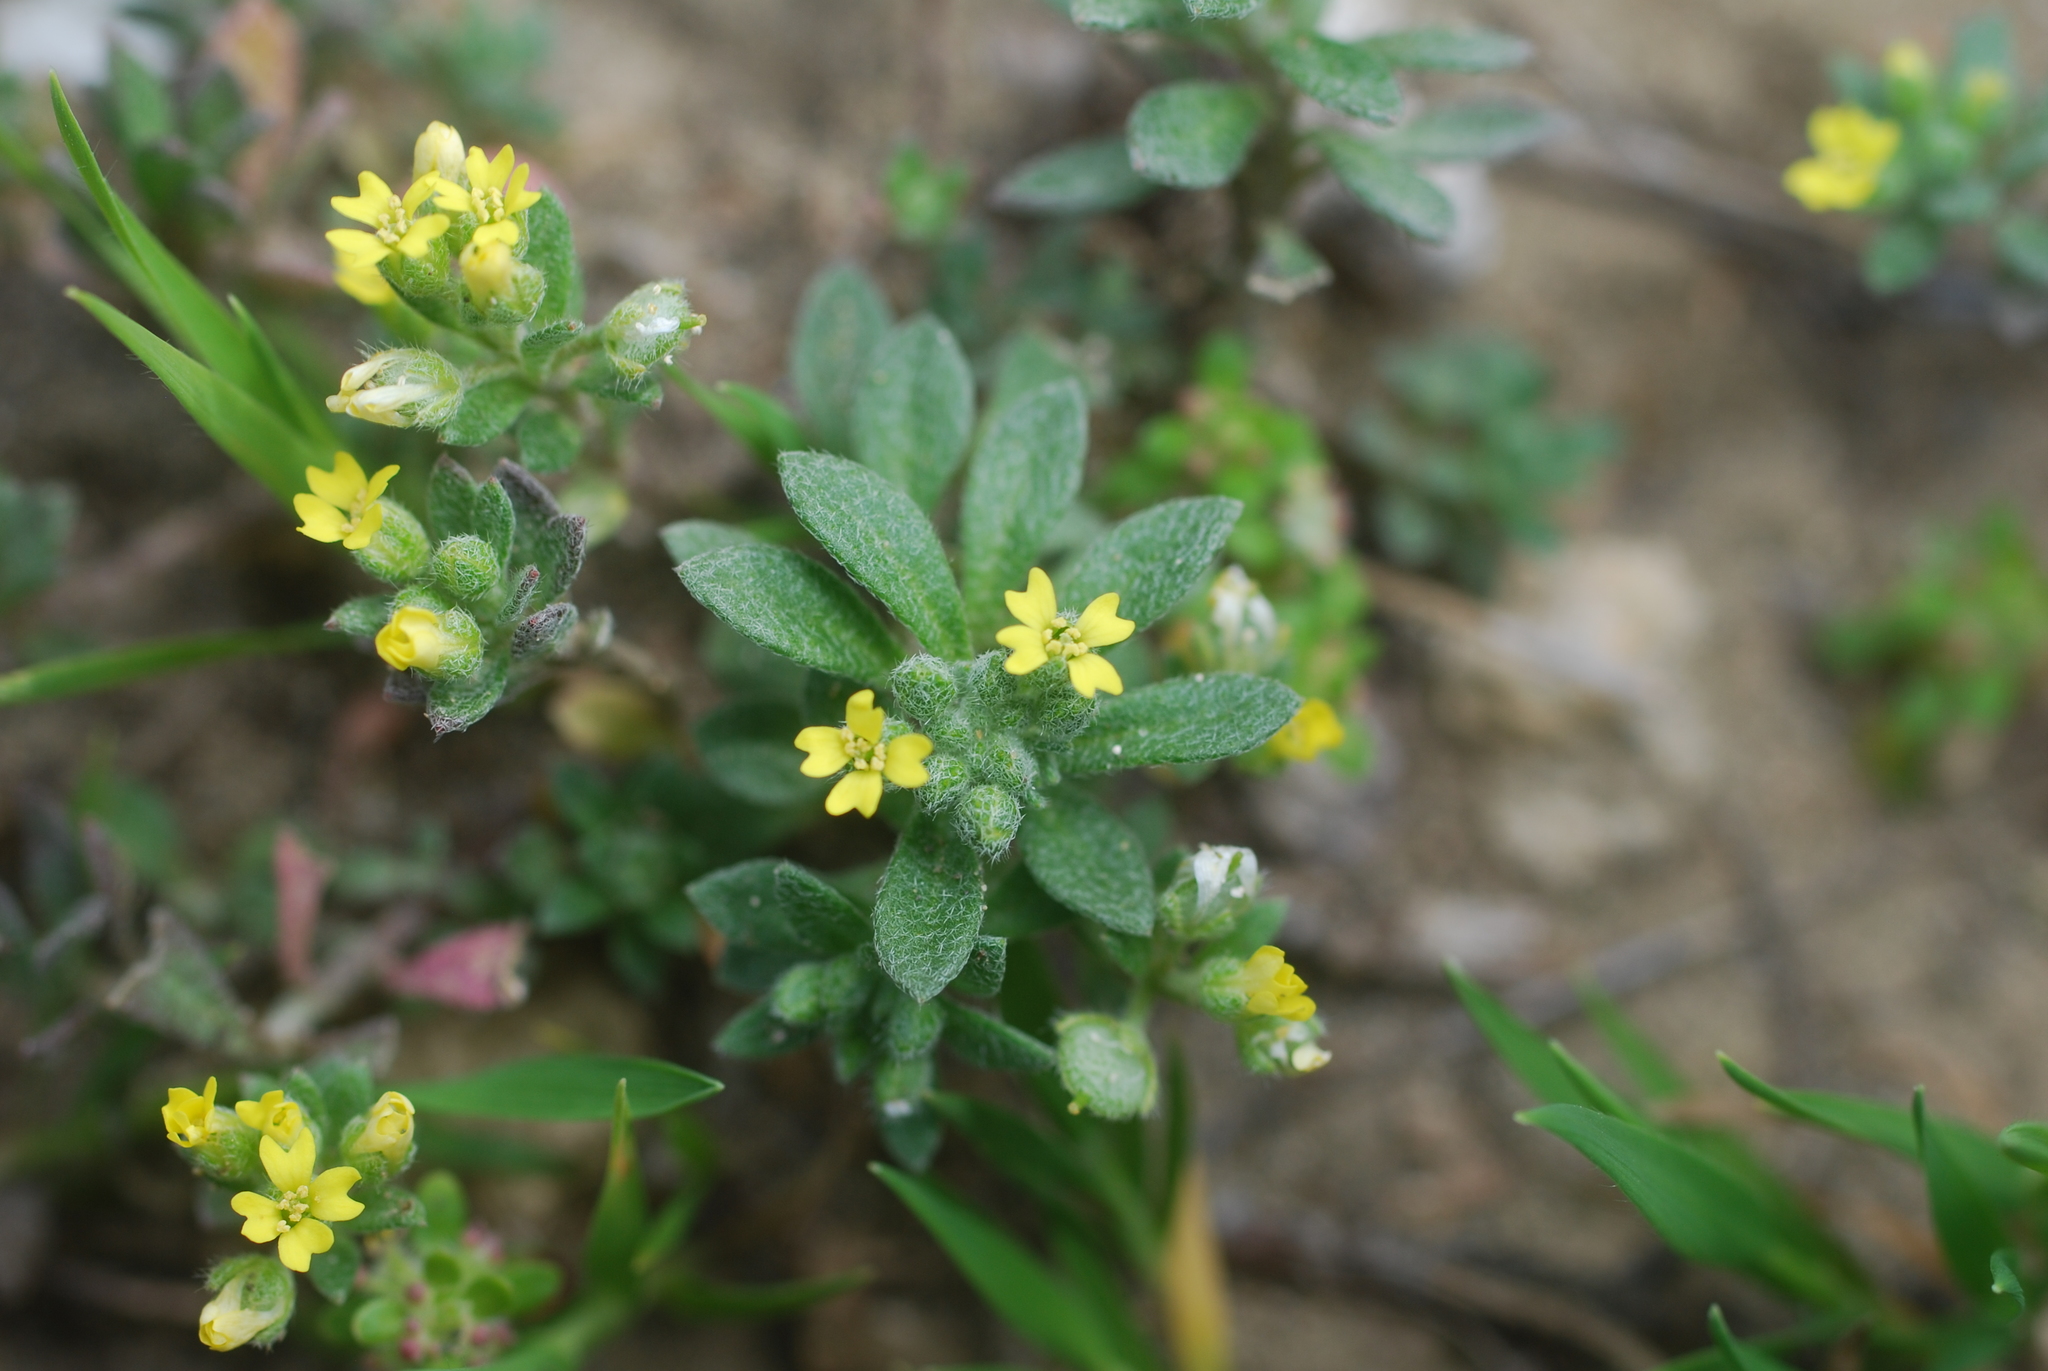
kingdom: Plantae
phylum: Tracheophyta
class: Magnoliopsida
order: Brassicales
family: Brassicaceae
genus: Alyssum
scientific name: Alyssum strigosum
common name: Alyssum
